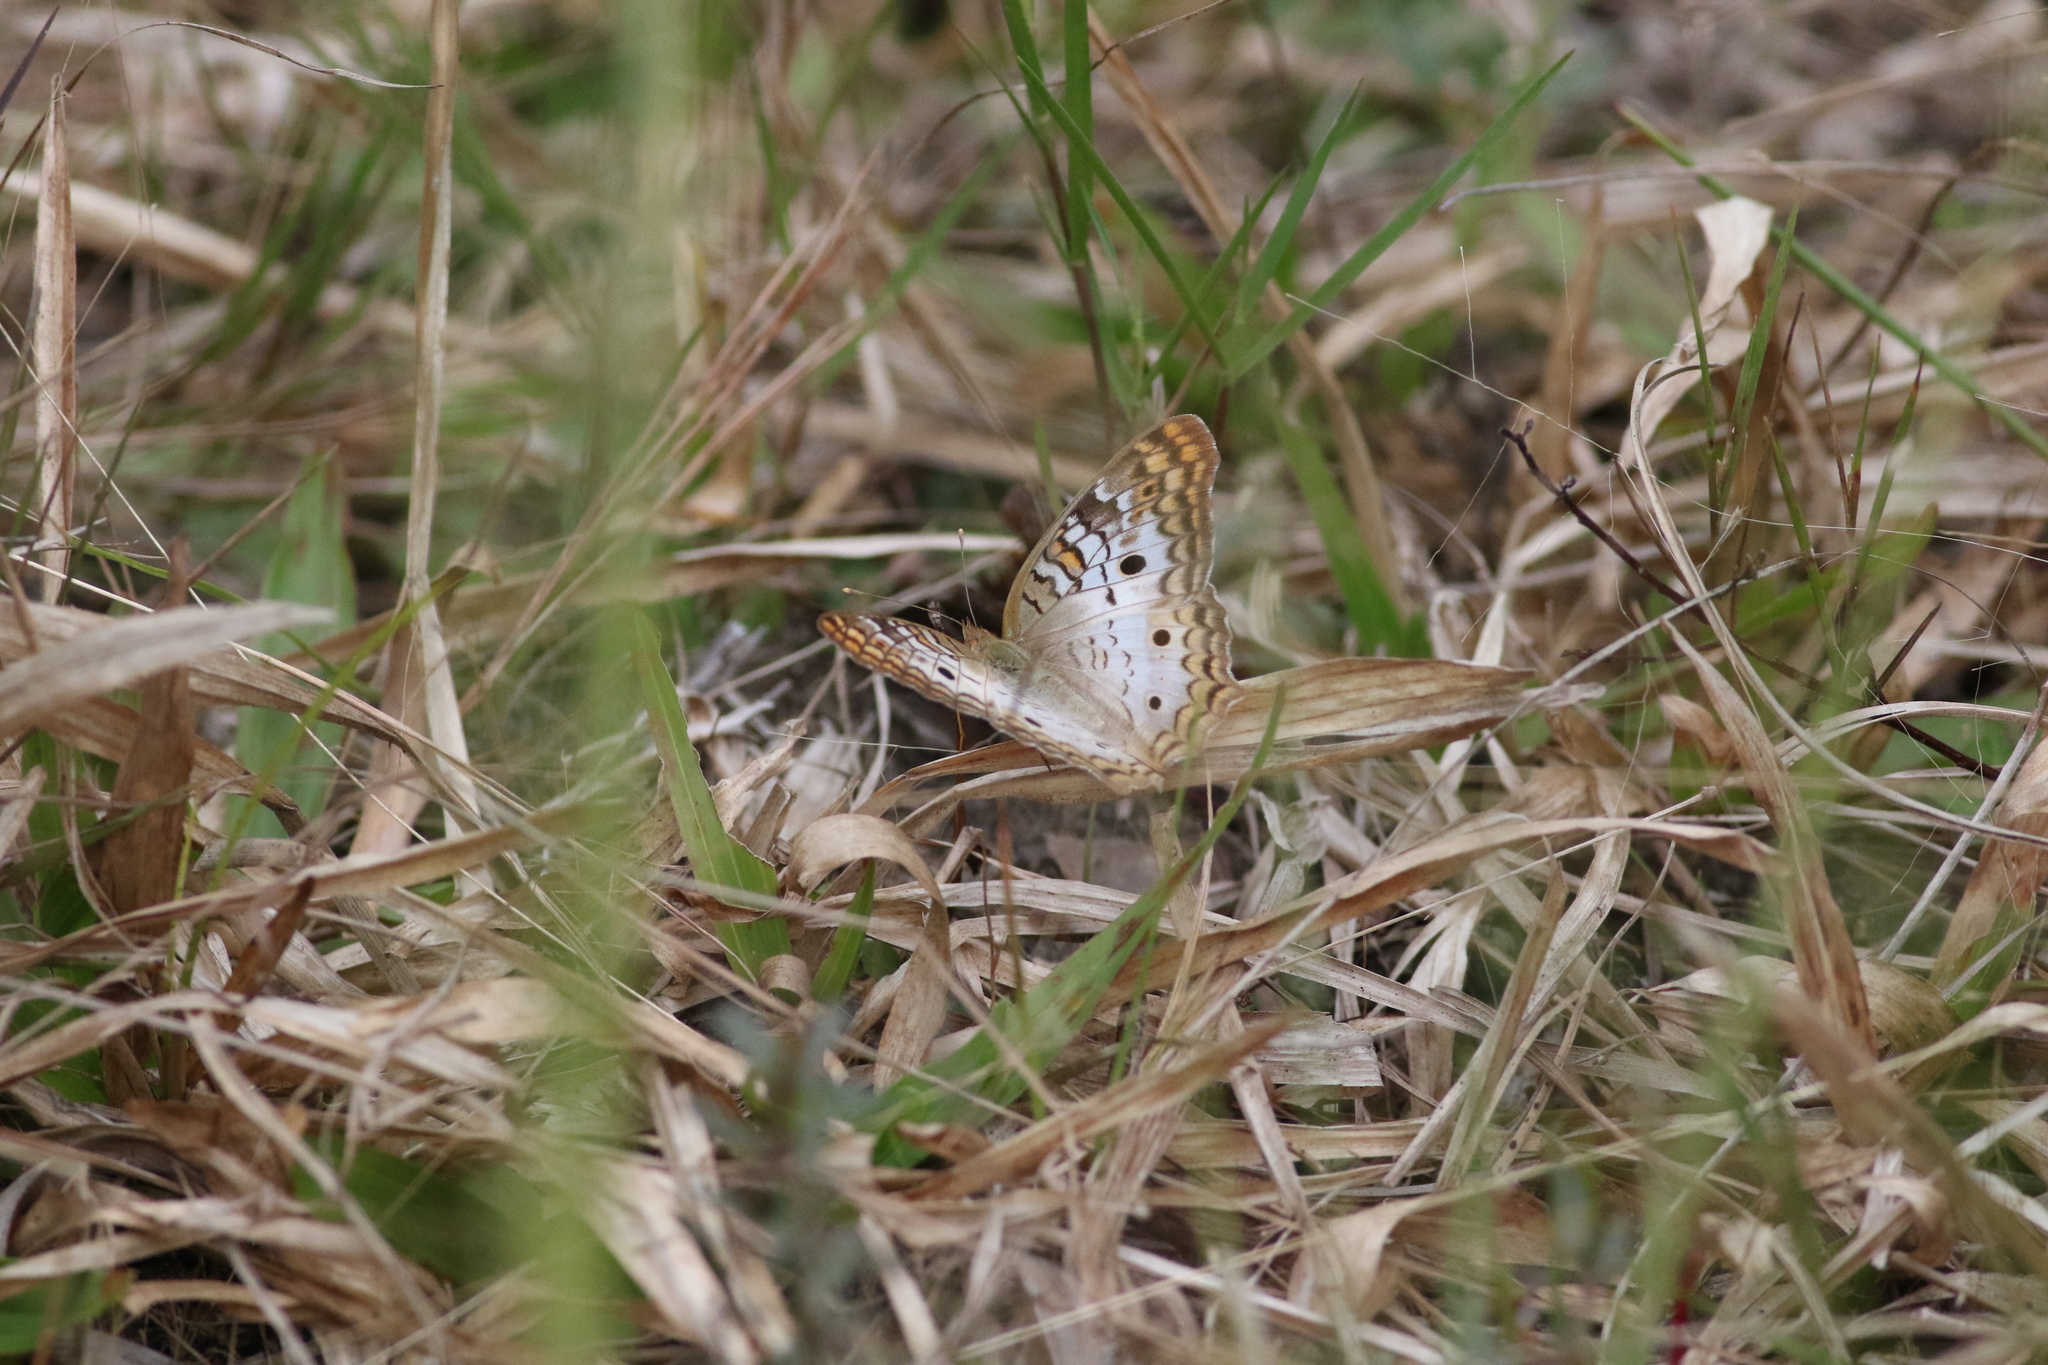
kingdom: Animalia
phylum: Arthropoda
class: Insecta
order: Lepidoptera
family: Nymphalidae
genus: Anartia
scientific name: Anartia jatrophae
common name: White peacock
